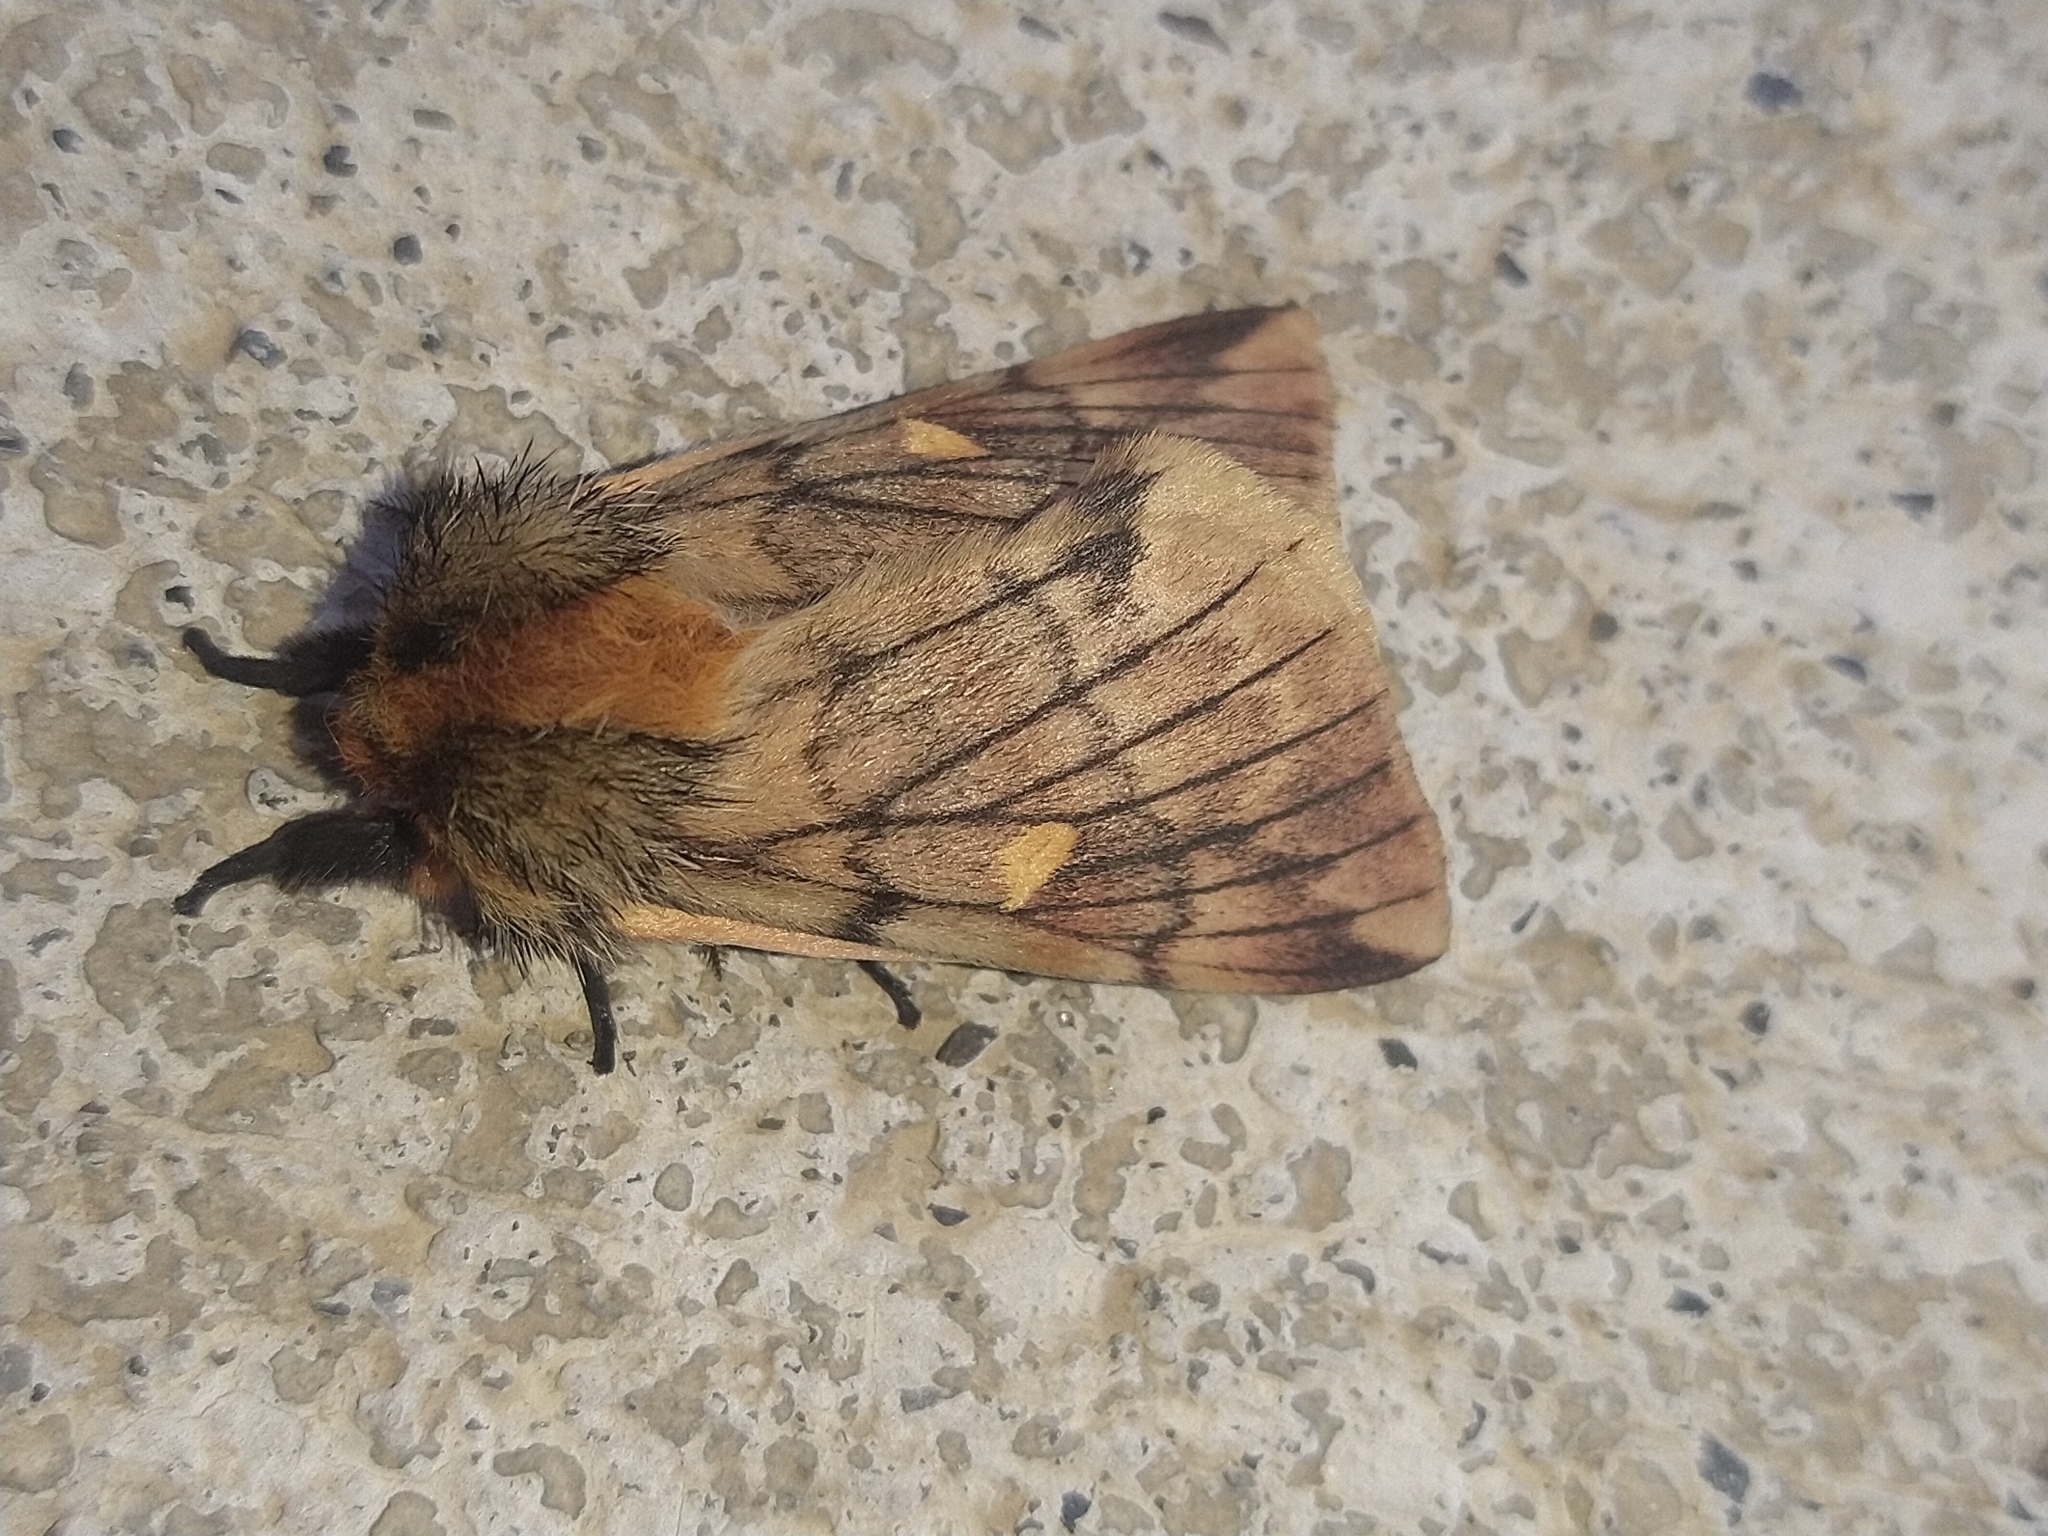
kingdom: Animalia
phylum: Arthropoda
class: Insecta
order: Lepidoptera
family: Saturniidae
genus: Ormiscodes
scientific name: Ormiscodes amphinome
